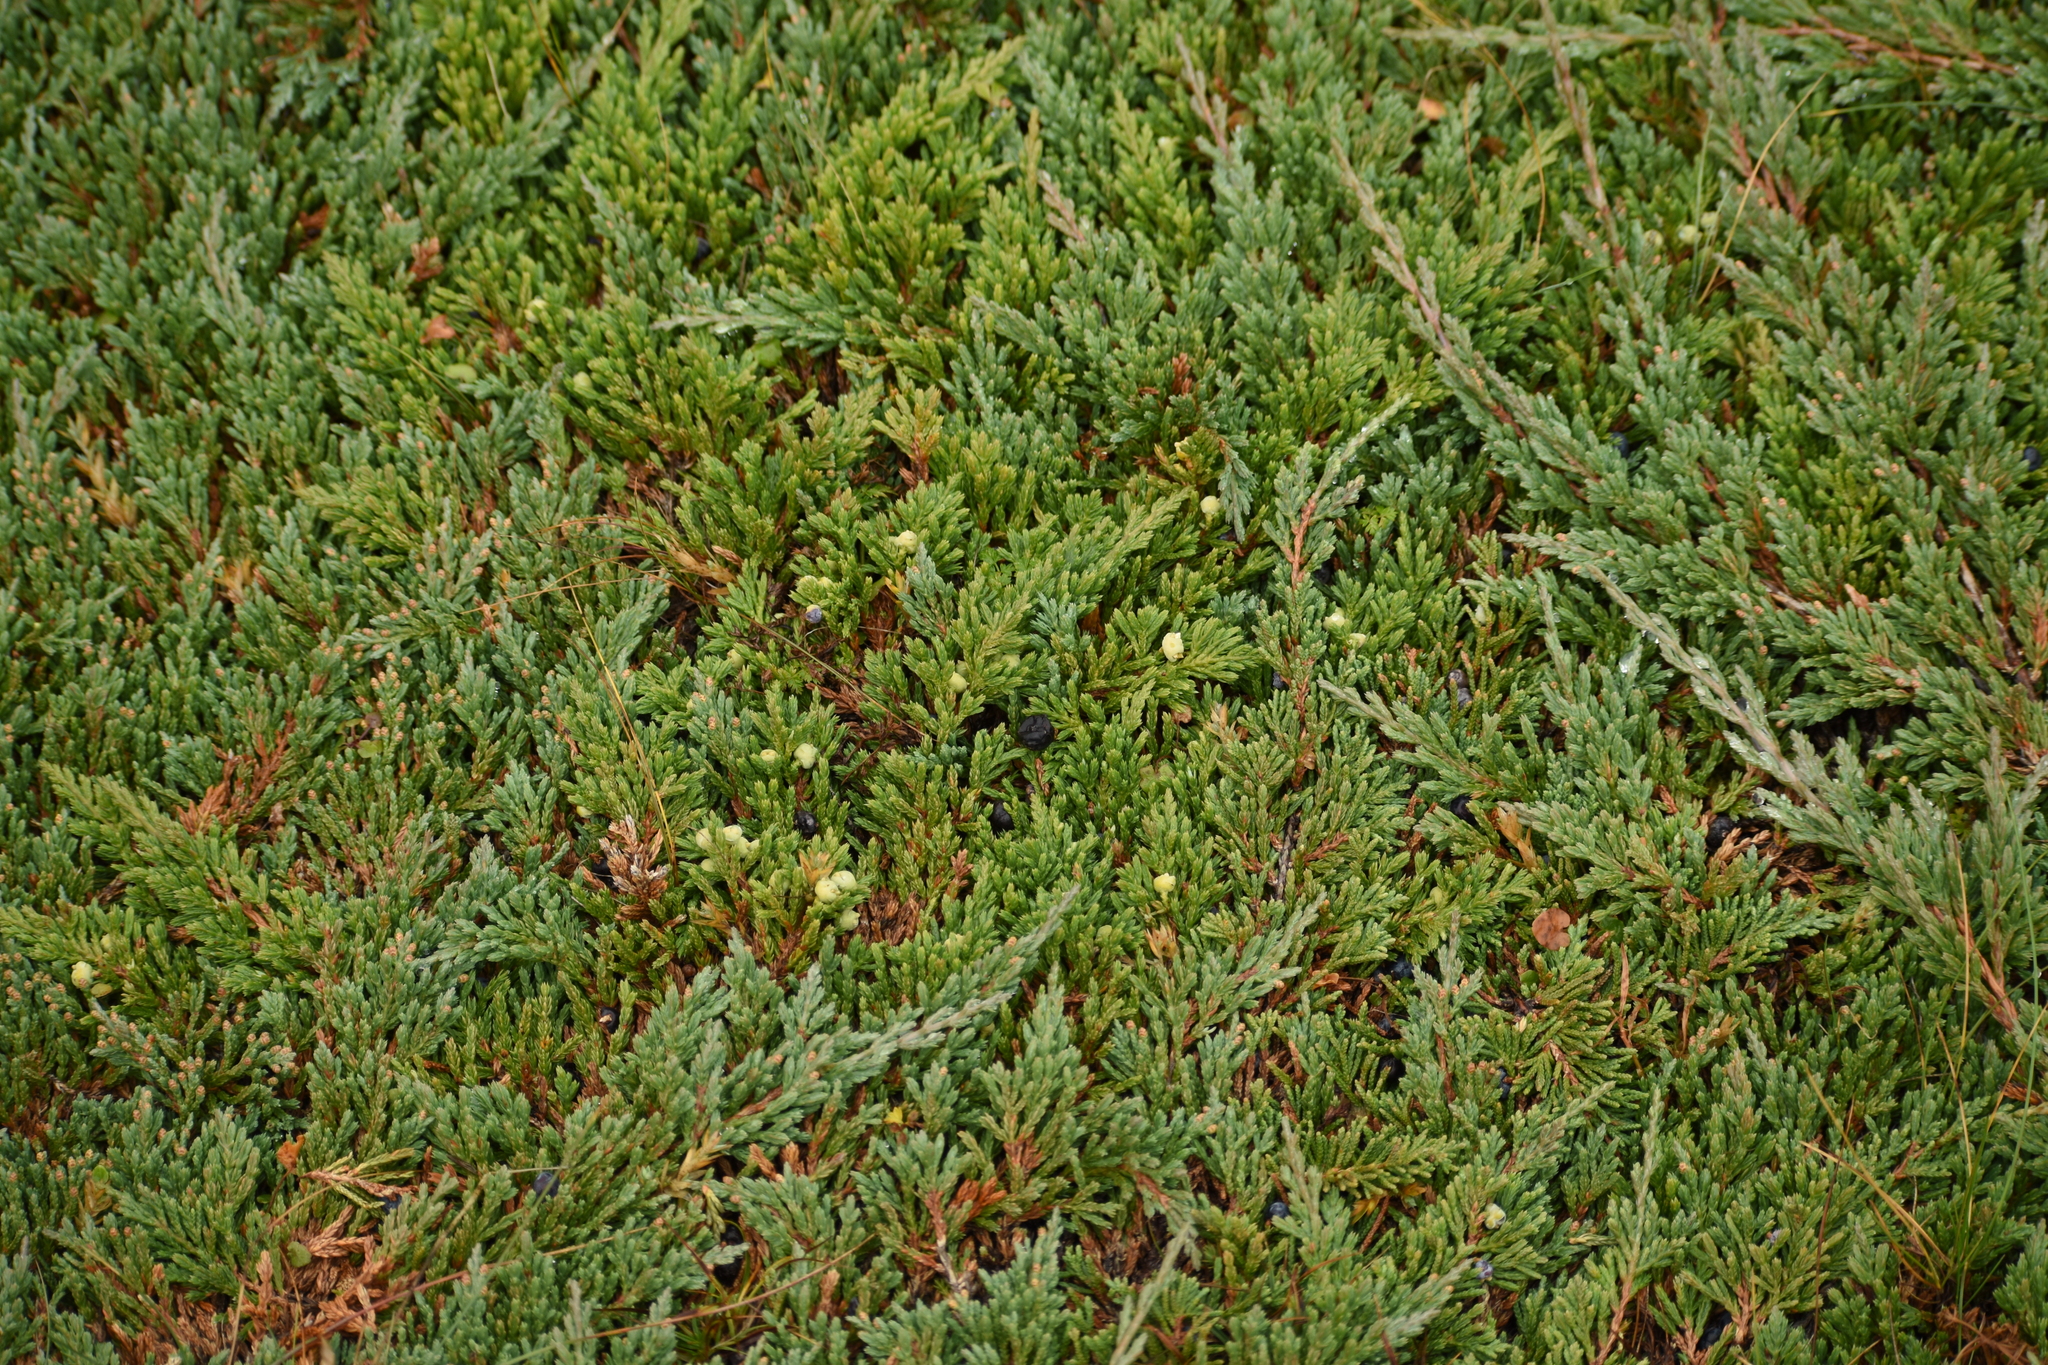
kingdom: Plantae
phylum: Tracheophyta
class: Pinopsida
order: Pinales
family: Cupressaceae
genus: Juniperus
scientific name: Juniperus horizontalis
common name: Creeping juniper
